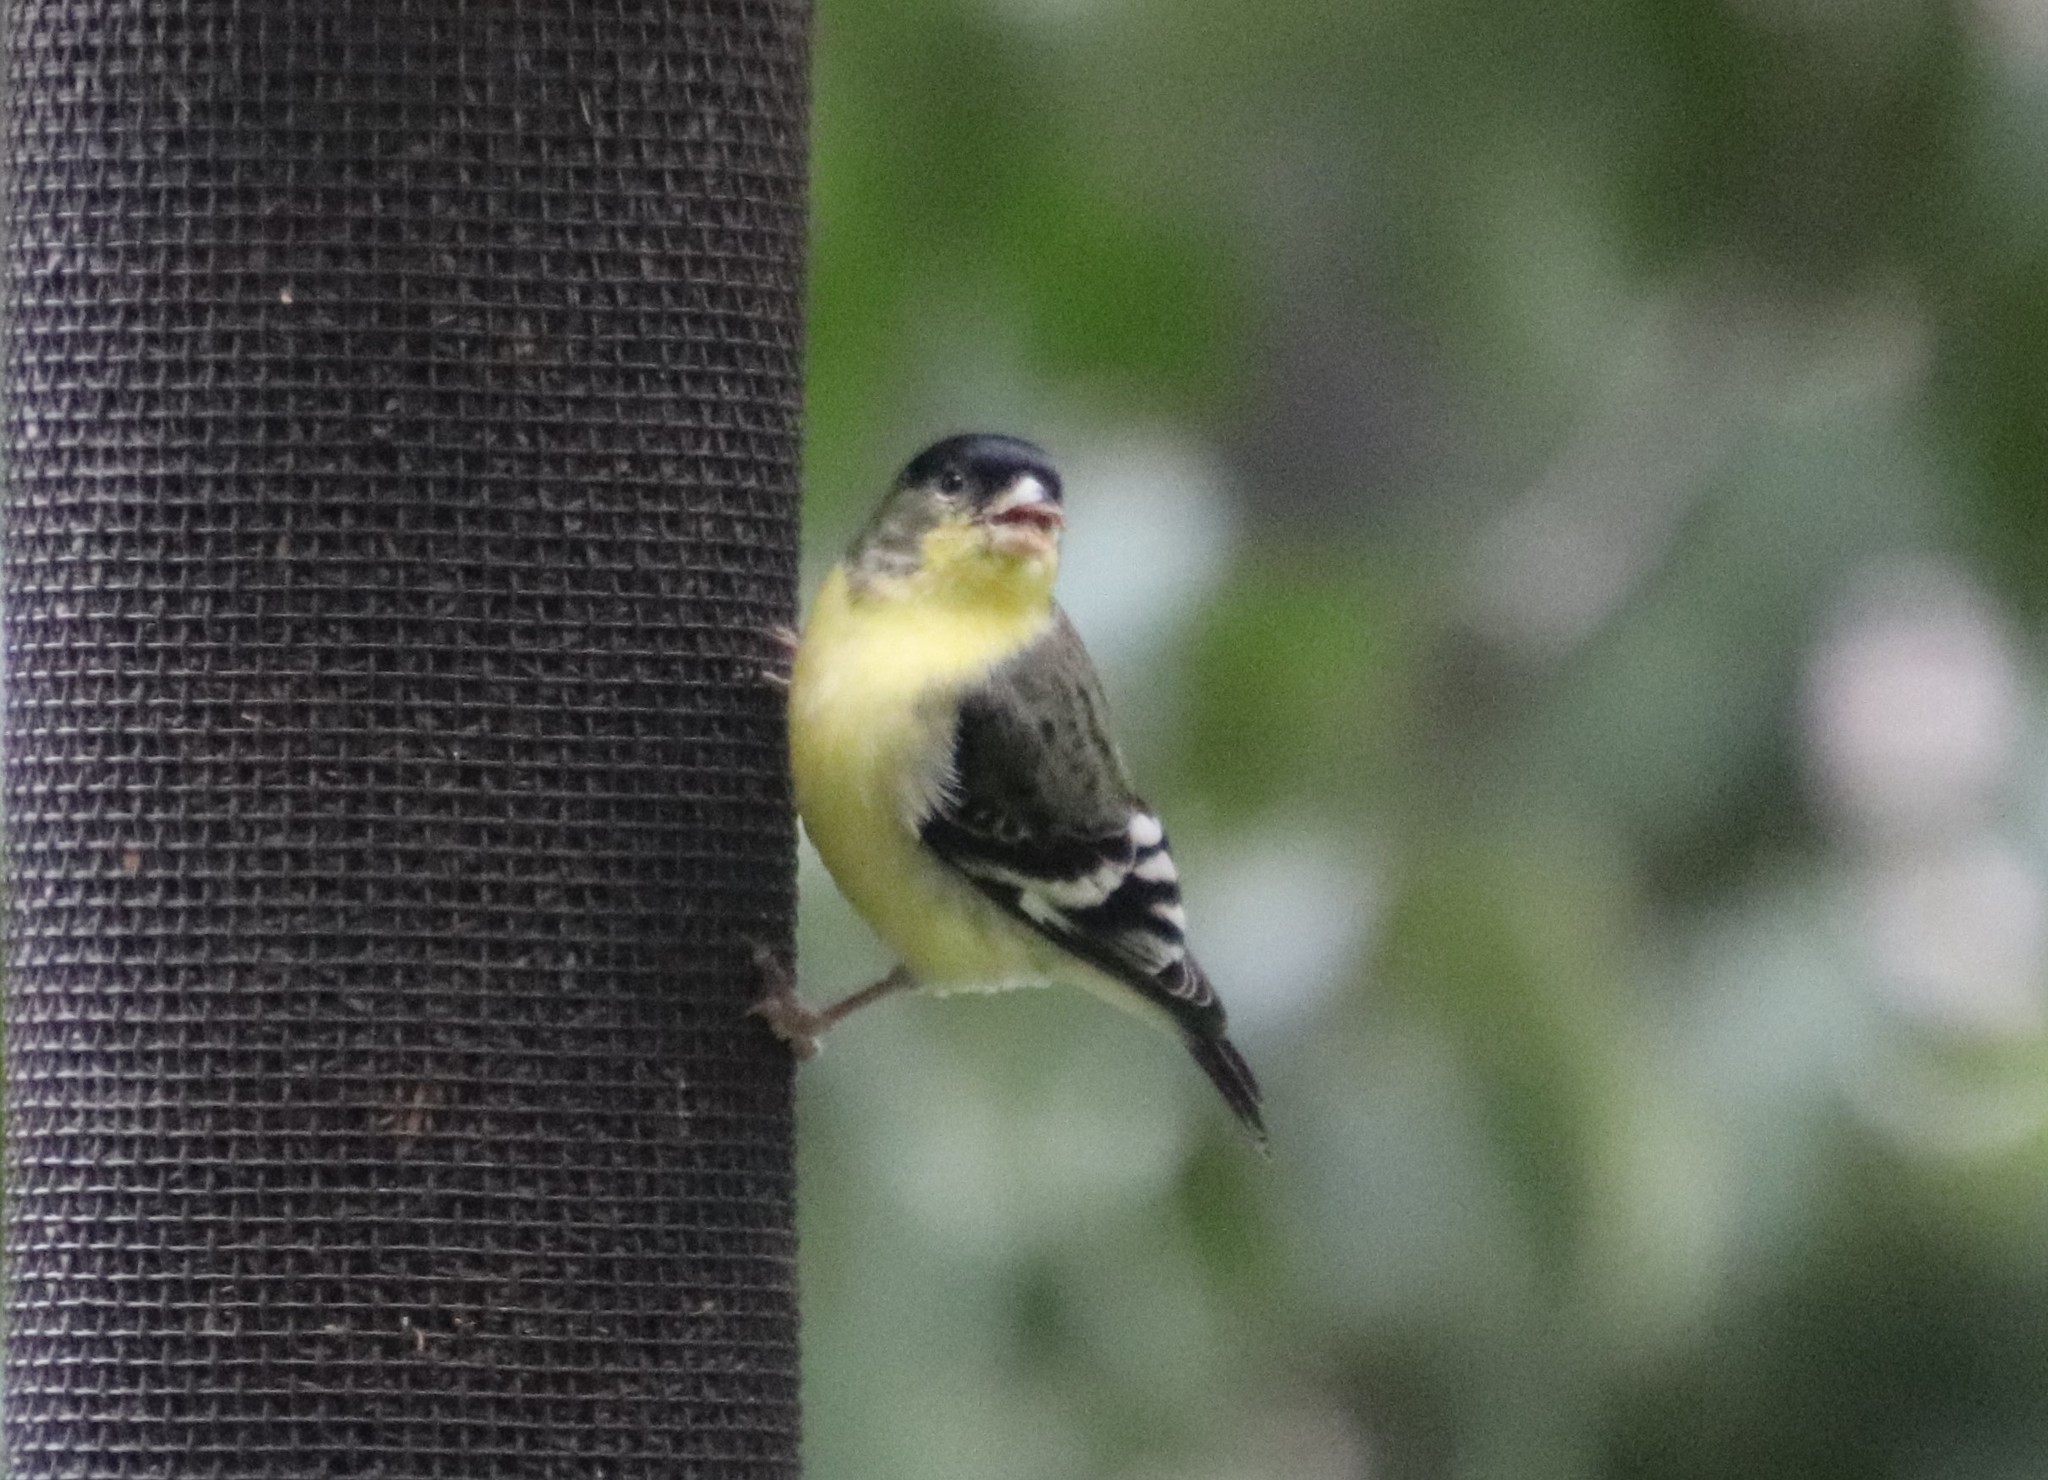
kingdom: Animalia
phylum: Chordata
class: Aves
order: Passeriformes
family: Fringillidae
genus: Spinus
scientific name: Spinus psaltria
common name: Lesser goldfinch
